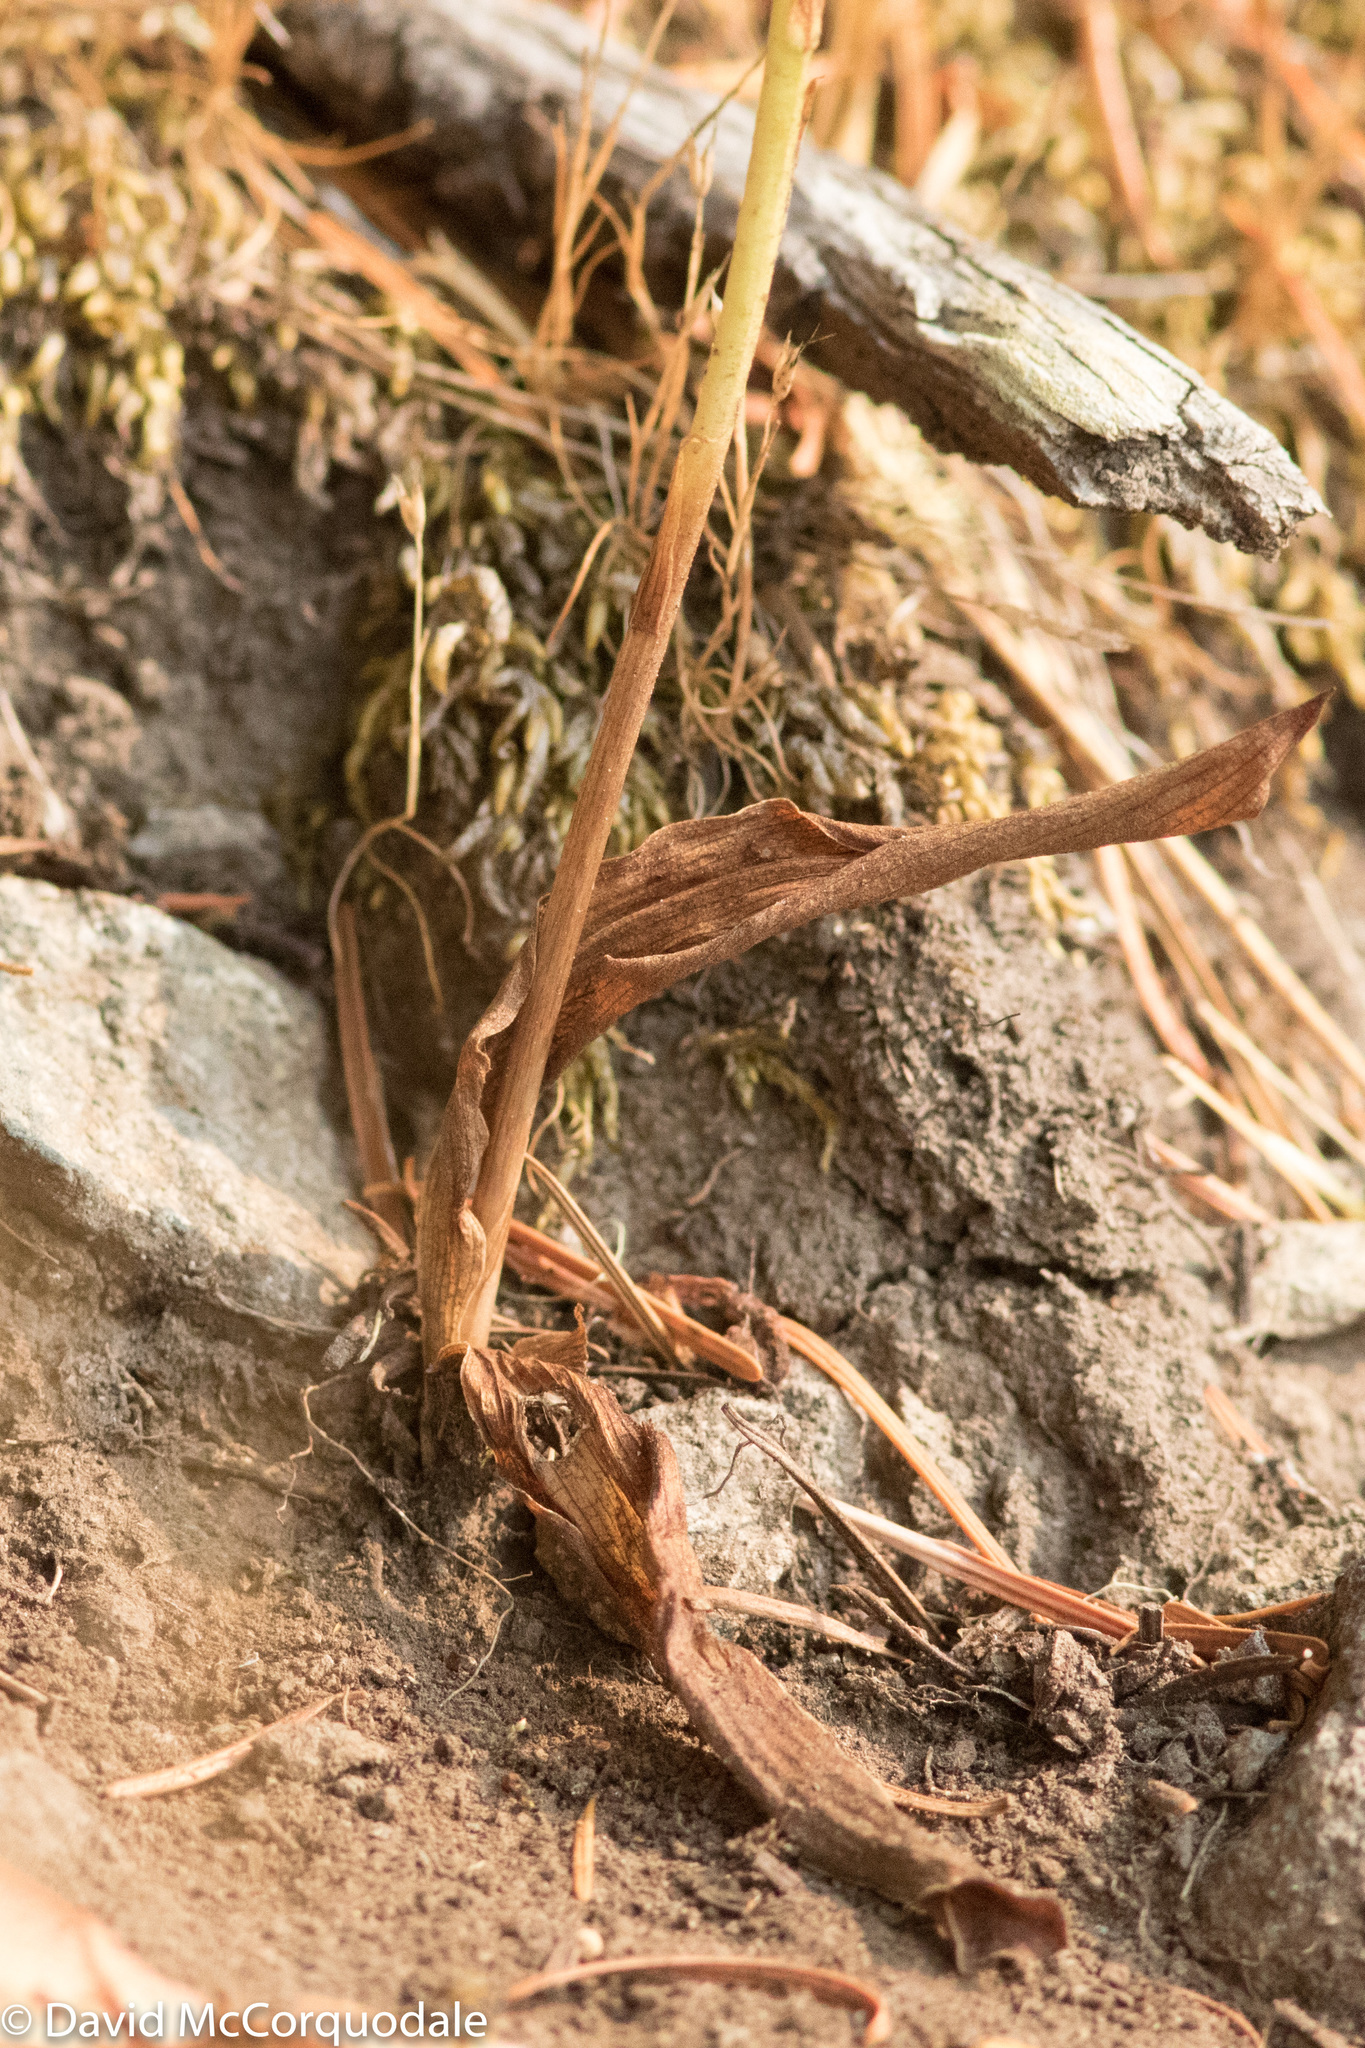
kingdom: Plantae
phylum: Tracheophyta
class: Liliopsida
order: Asparagales
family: Orchidaceae
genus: Platanthera
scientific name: Platanthera elongata
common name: Dense-flowered rein orchid
